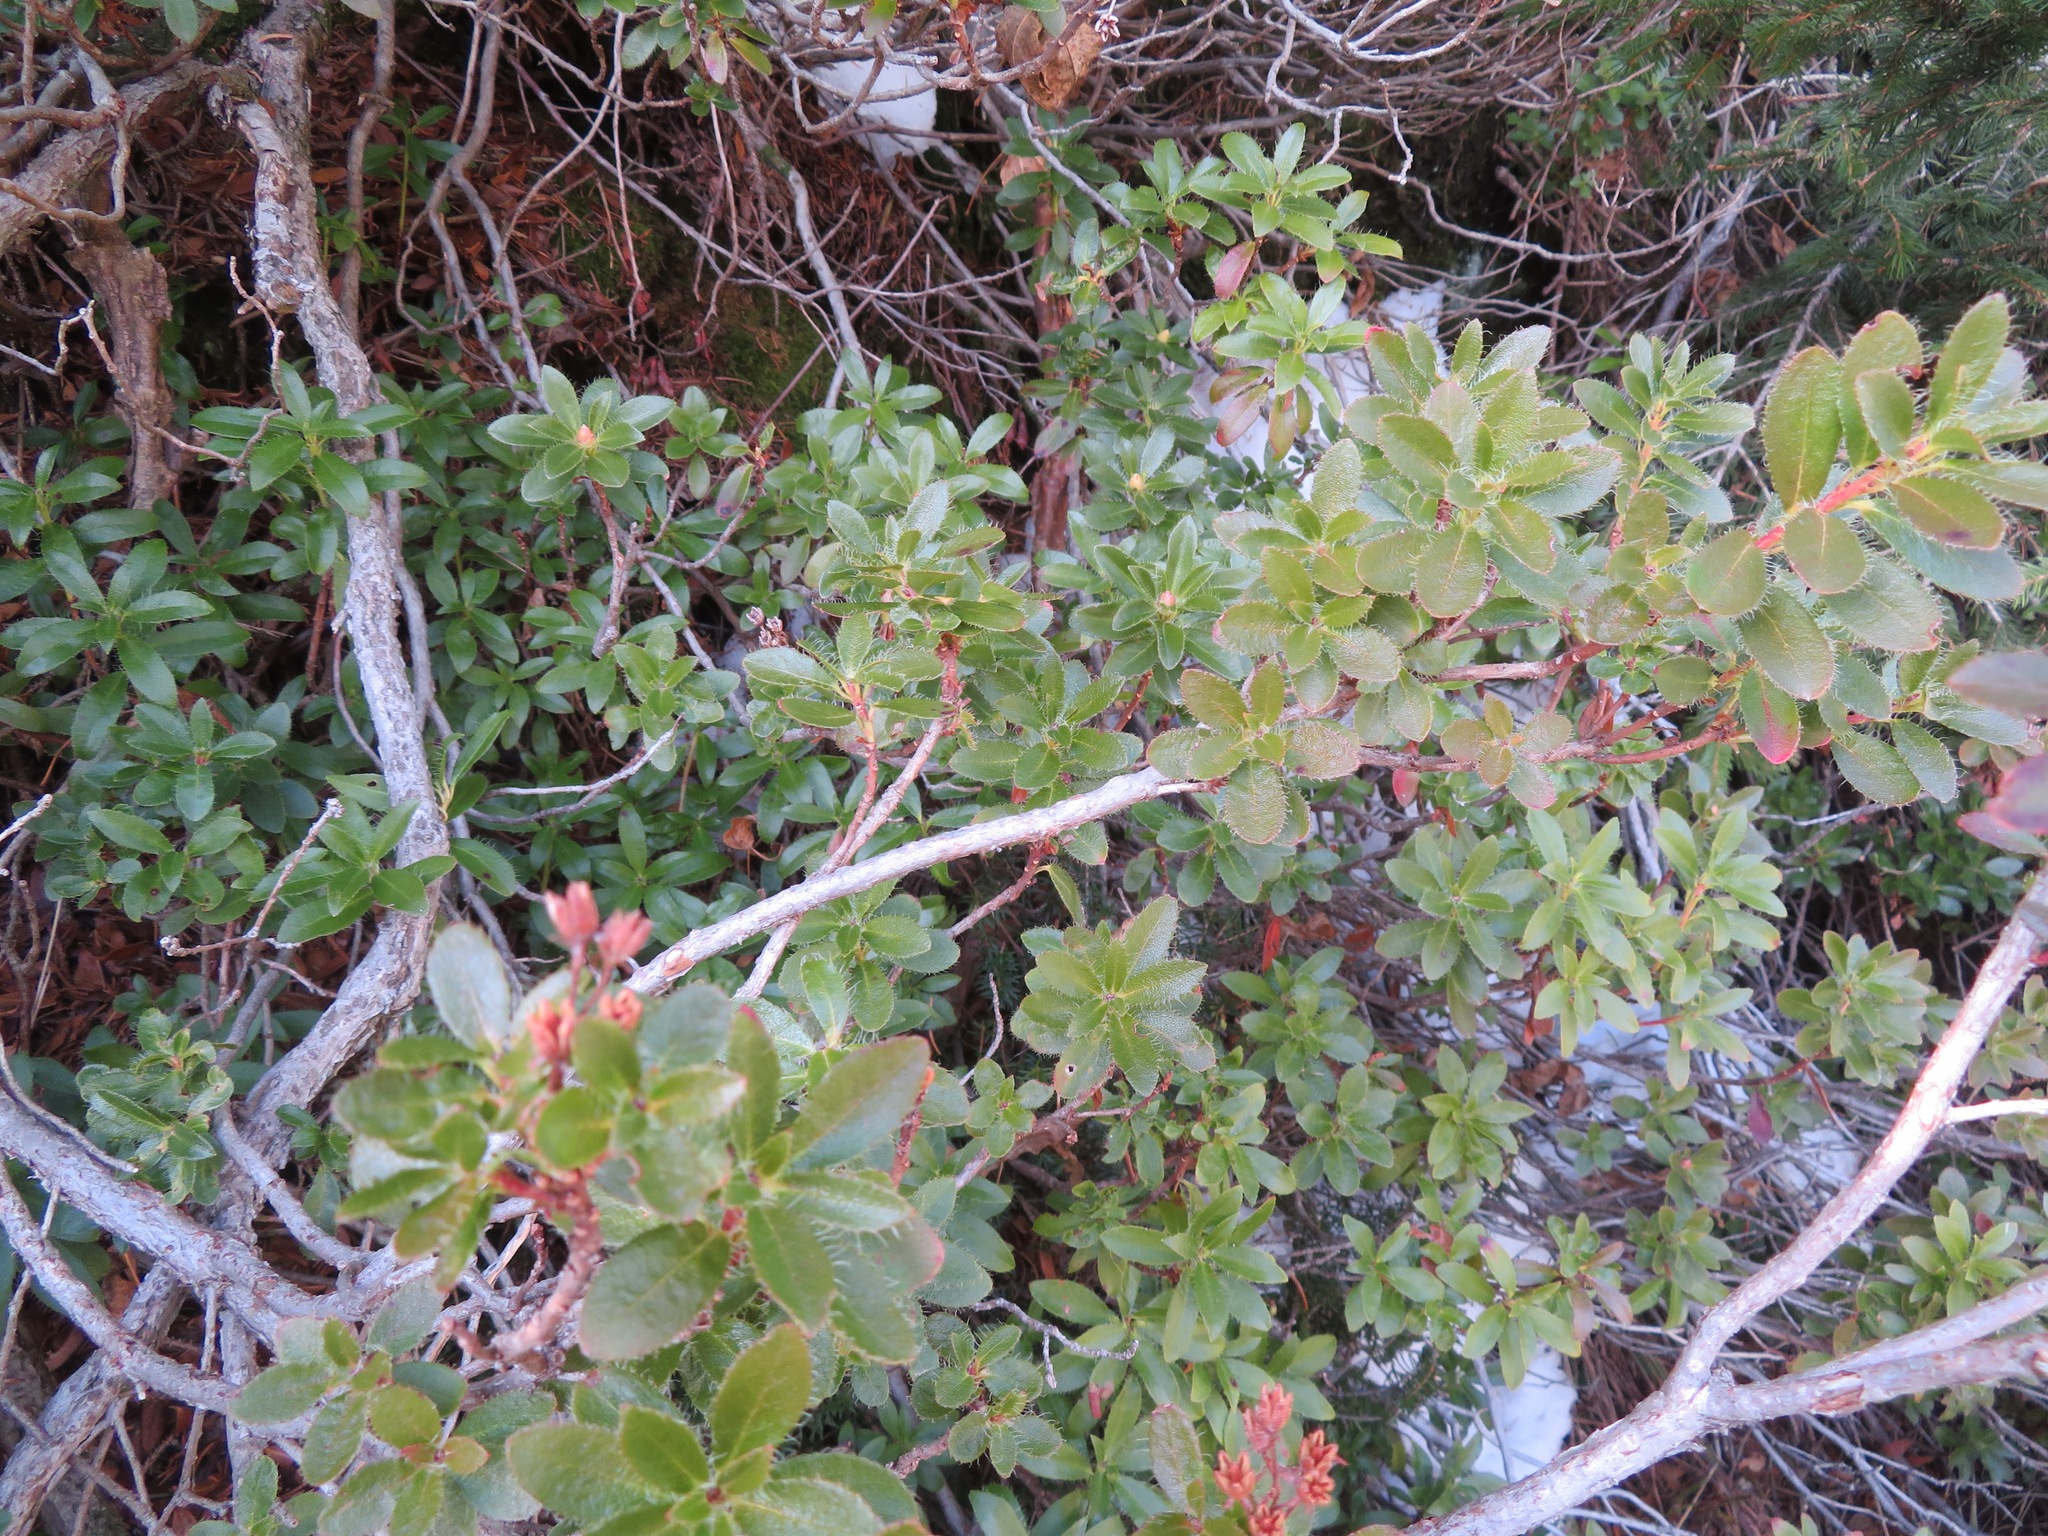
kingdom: Plantae
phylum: Tracheophyta
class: Magnoliopsida
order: Ericales
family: Ericaceae
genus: Rhododendron
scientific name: Rhododendron hirsutum
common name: Hairy alpenrose
